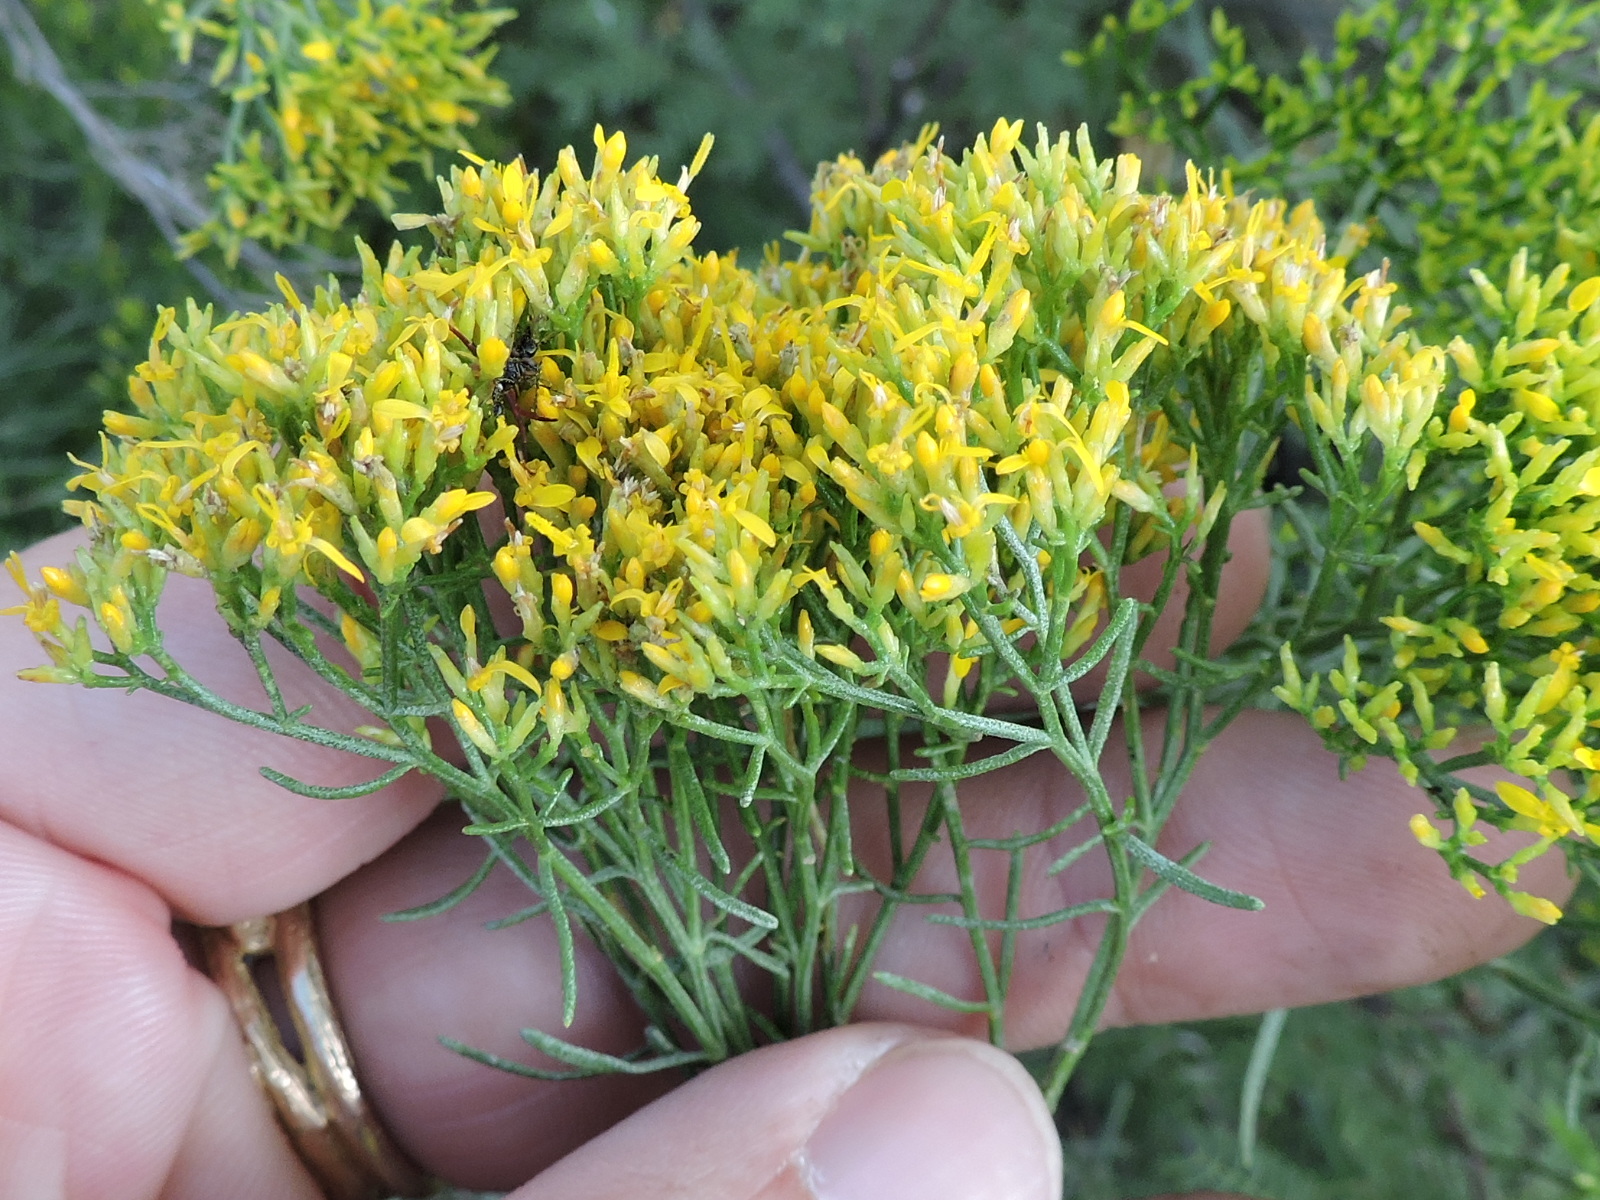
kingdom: Plantae
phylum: Tracheophyta
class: Magnoliopsida
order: Asterales
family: Asteraceae
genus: Gutierrezia
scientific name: Gutierrezia microcephala
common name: Thread snakeweed
